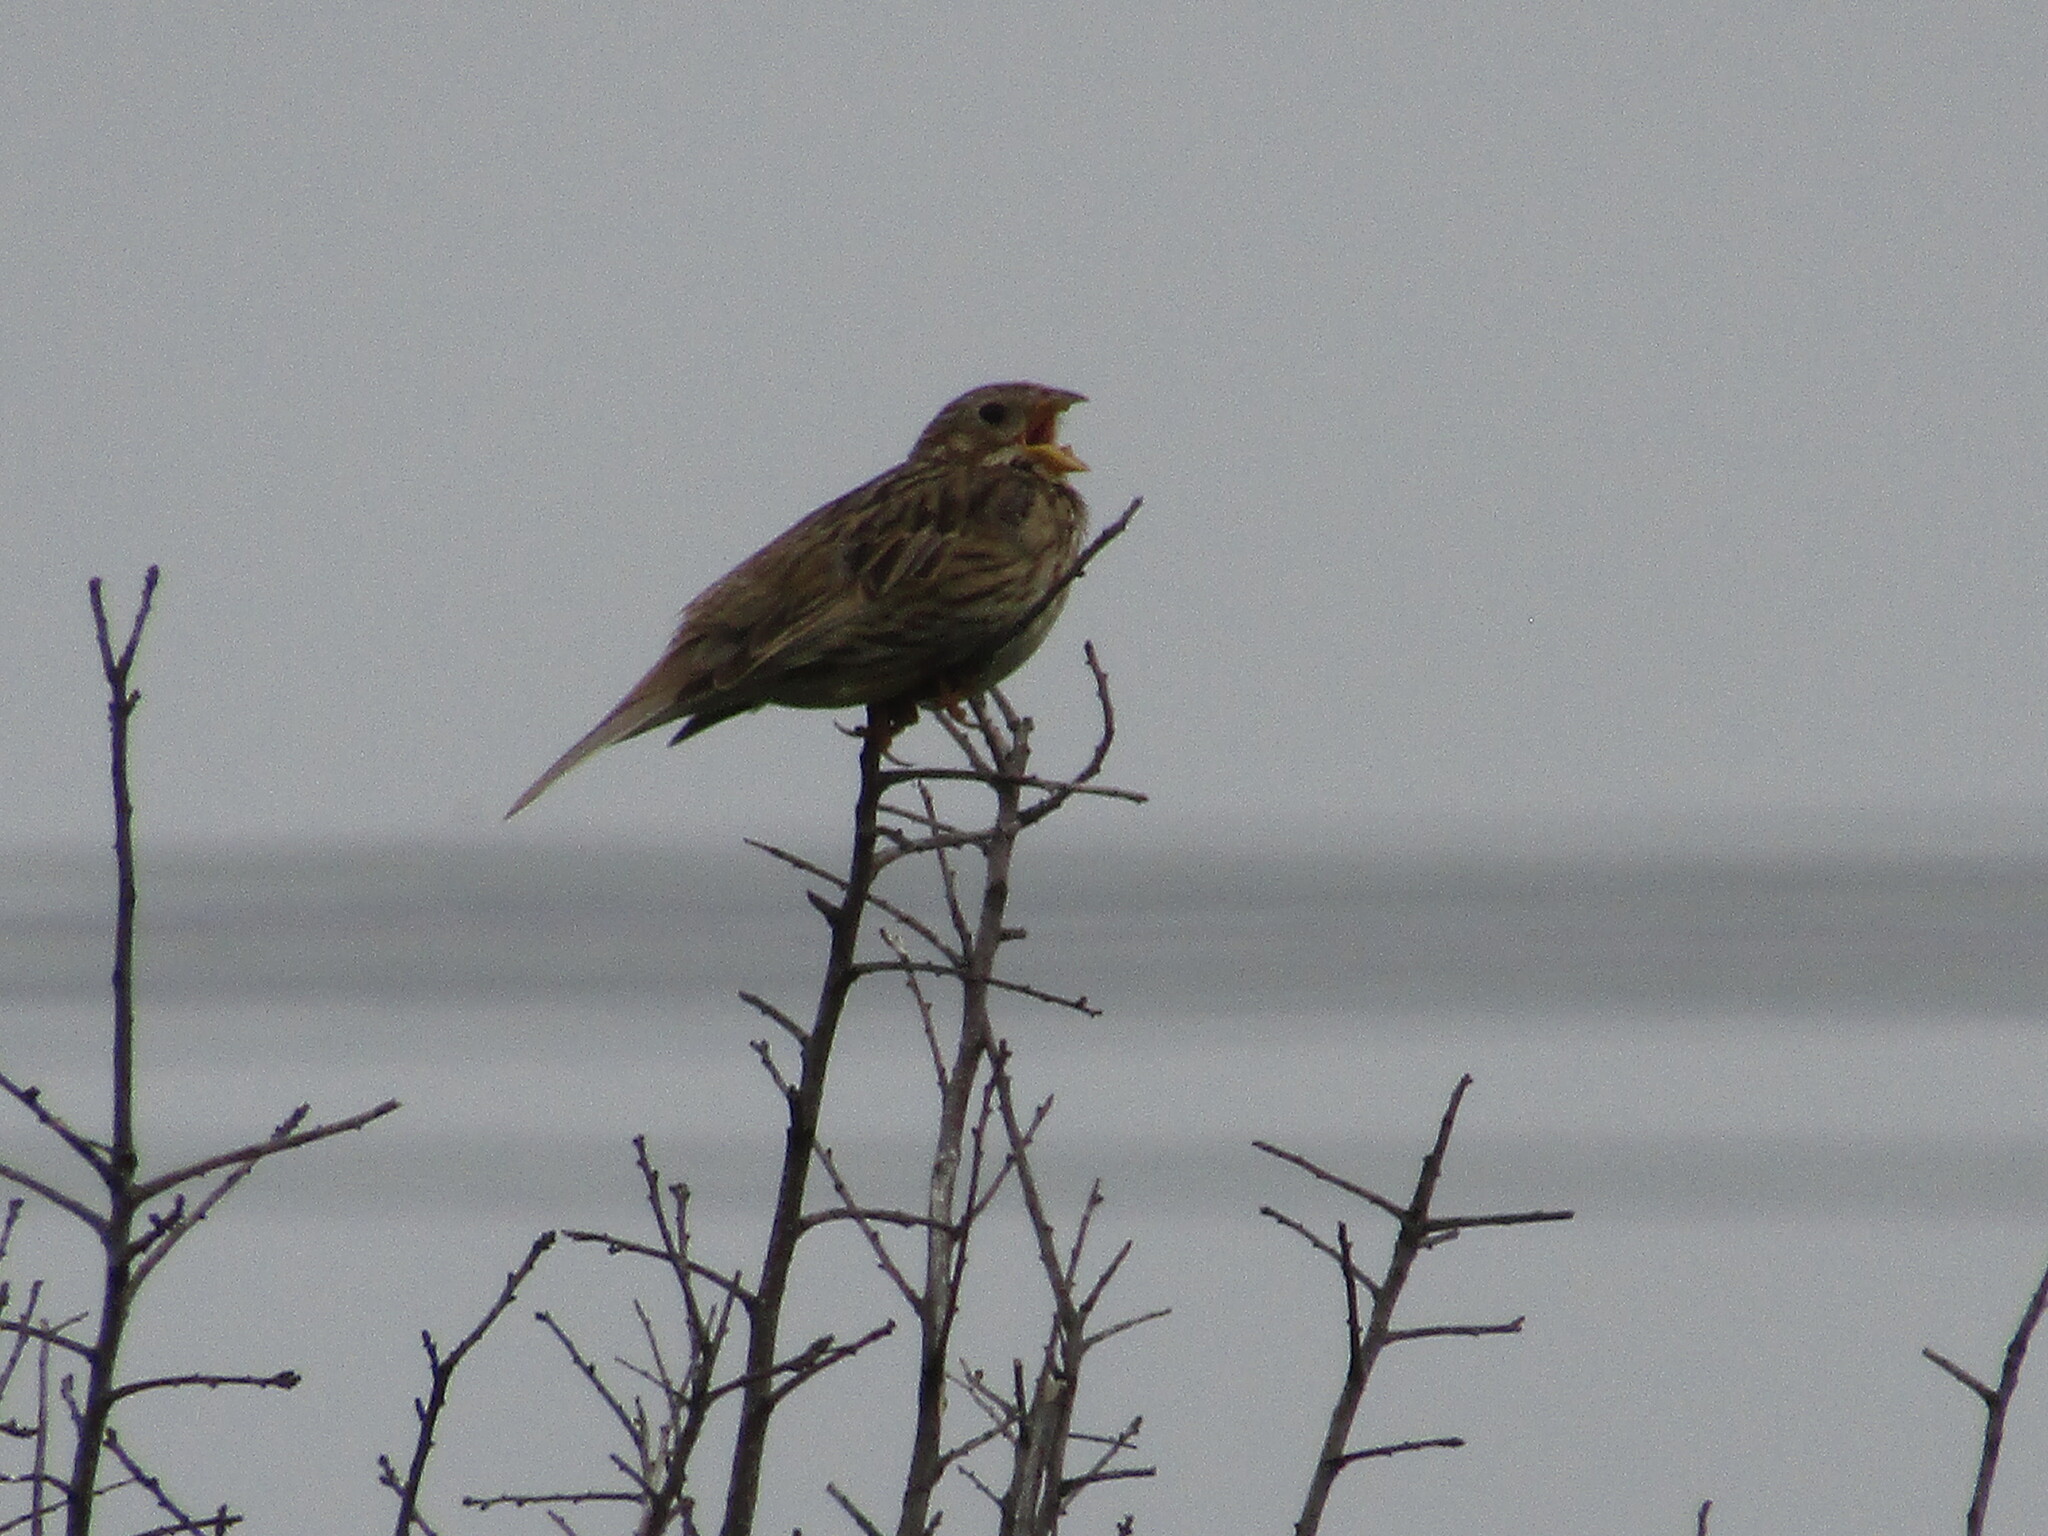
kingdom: Animalia
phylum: Chordata
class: Aves
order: Passeriformes
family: Emberizidae
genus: Emberiza
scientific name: Emberiza calandra
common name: Corn bunting
